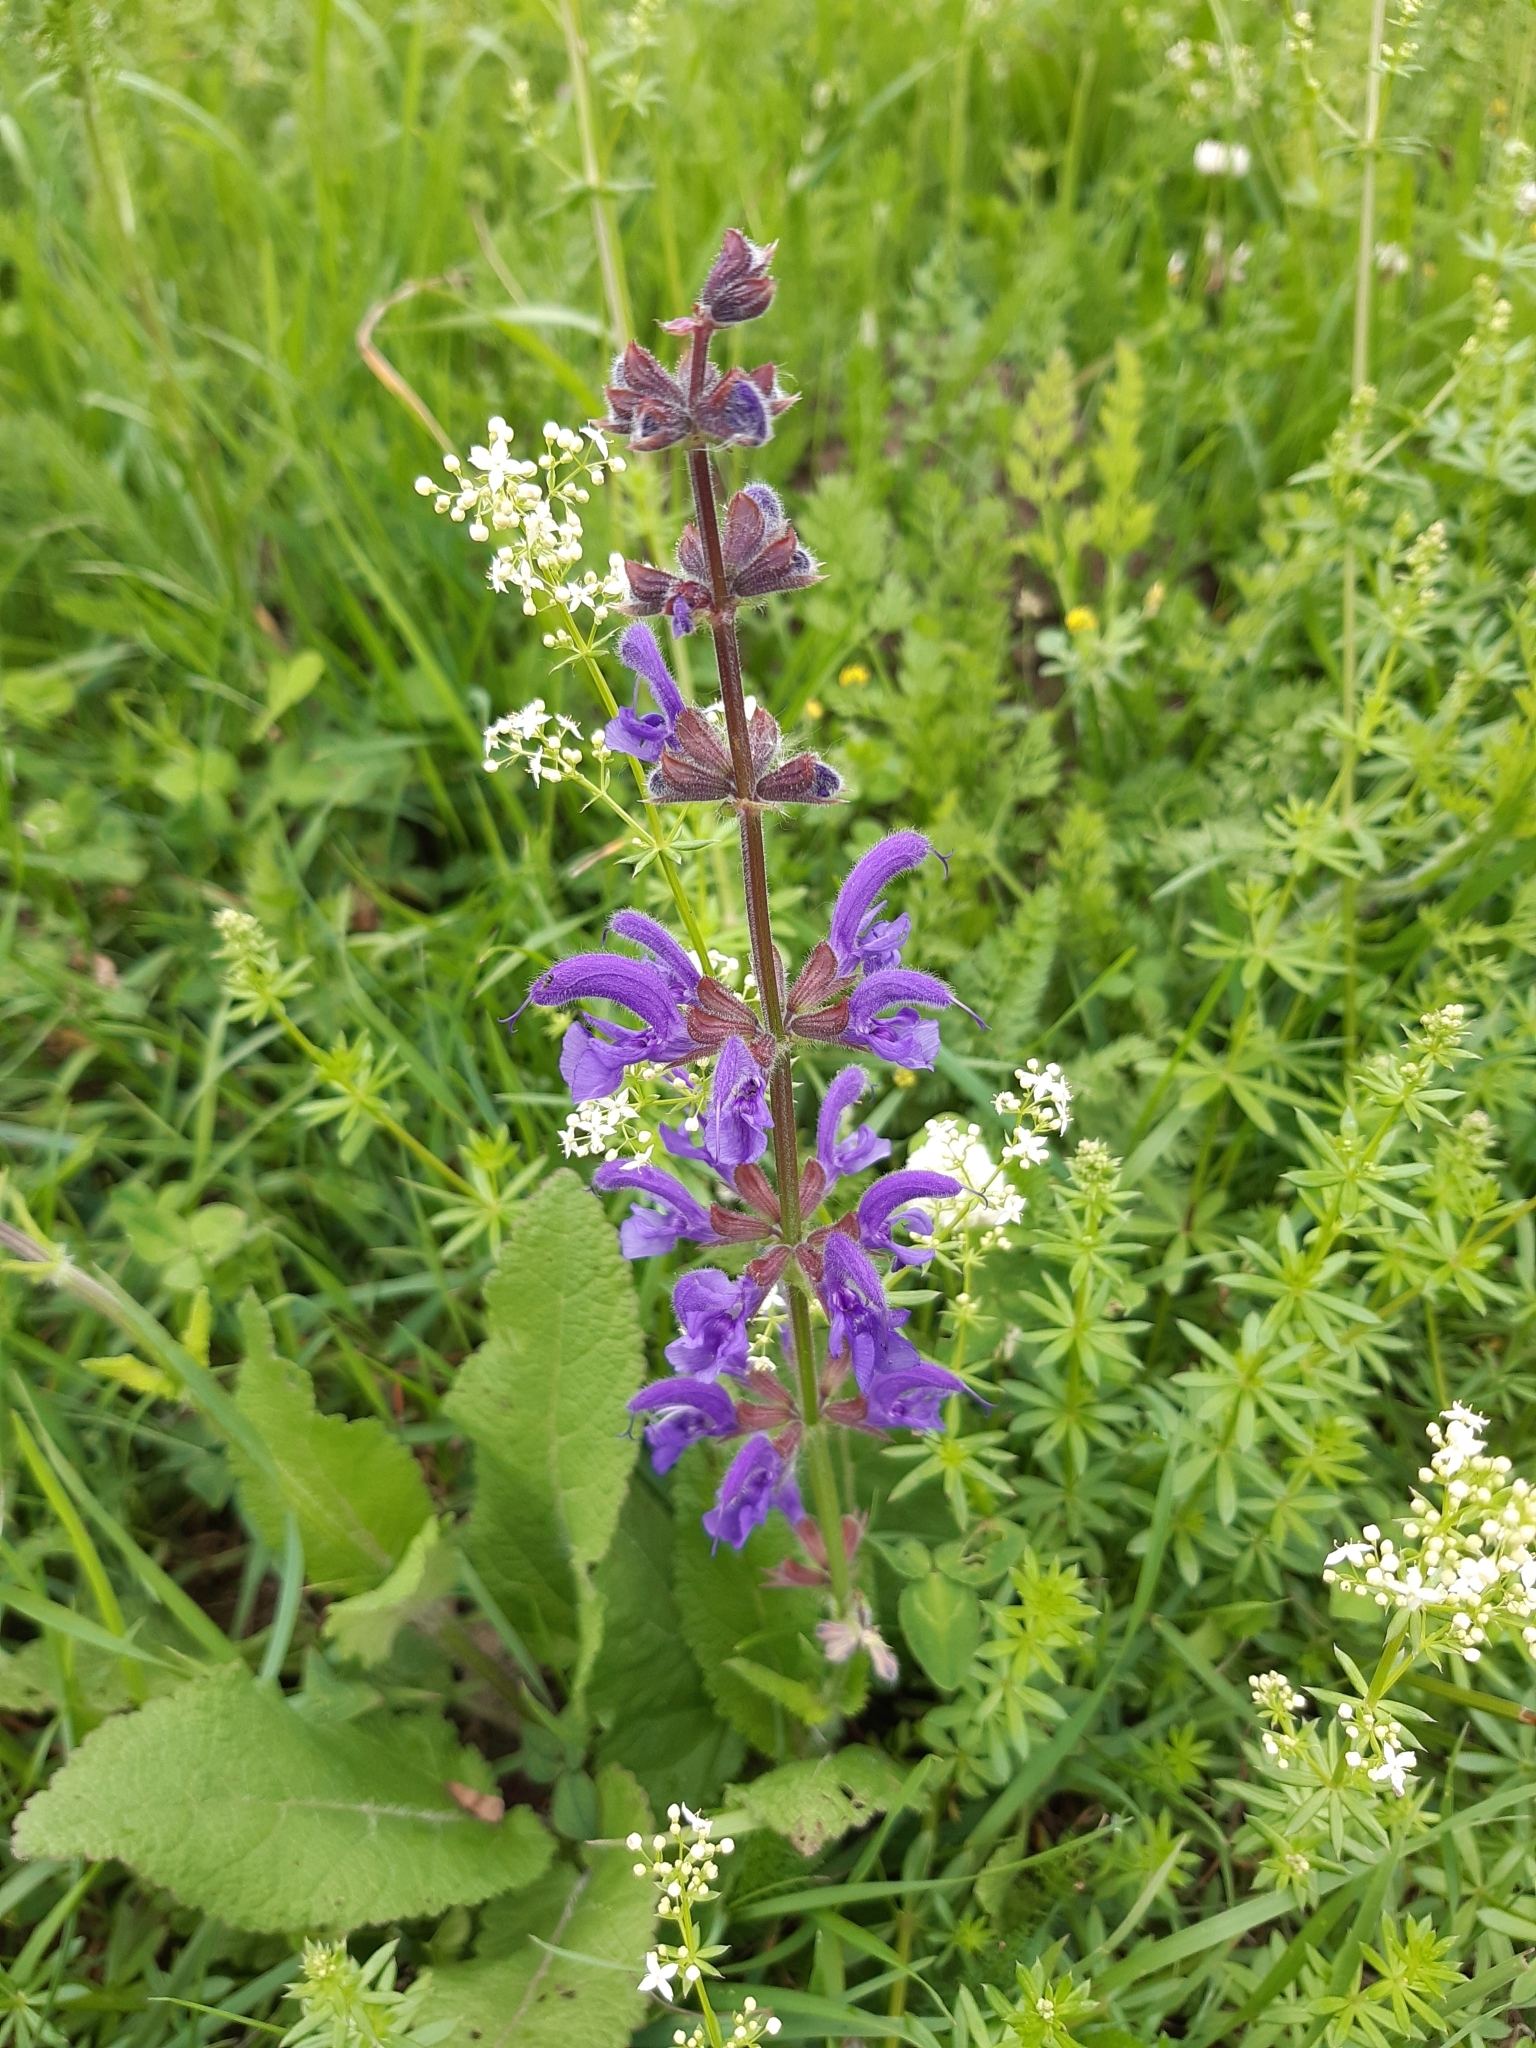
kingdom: Plantae
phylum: Tracheophyta
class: Magnoliopsida
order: Lamiales
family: Lamiaceae
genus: Salvia
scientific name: Salvia pratensis
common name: Meadow sage
